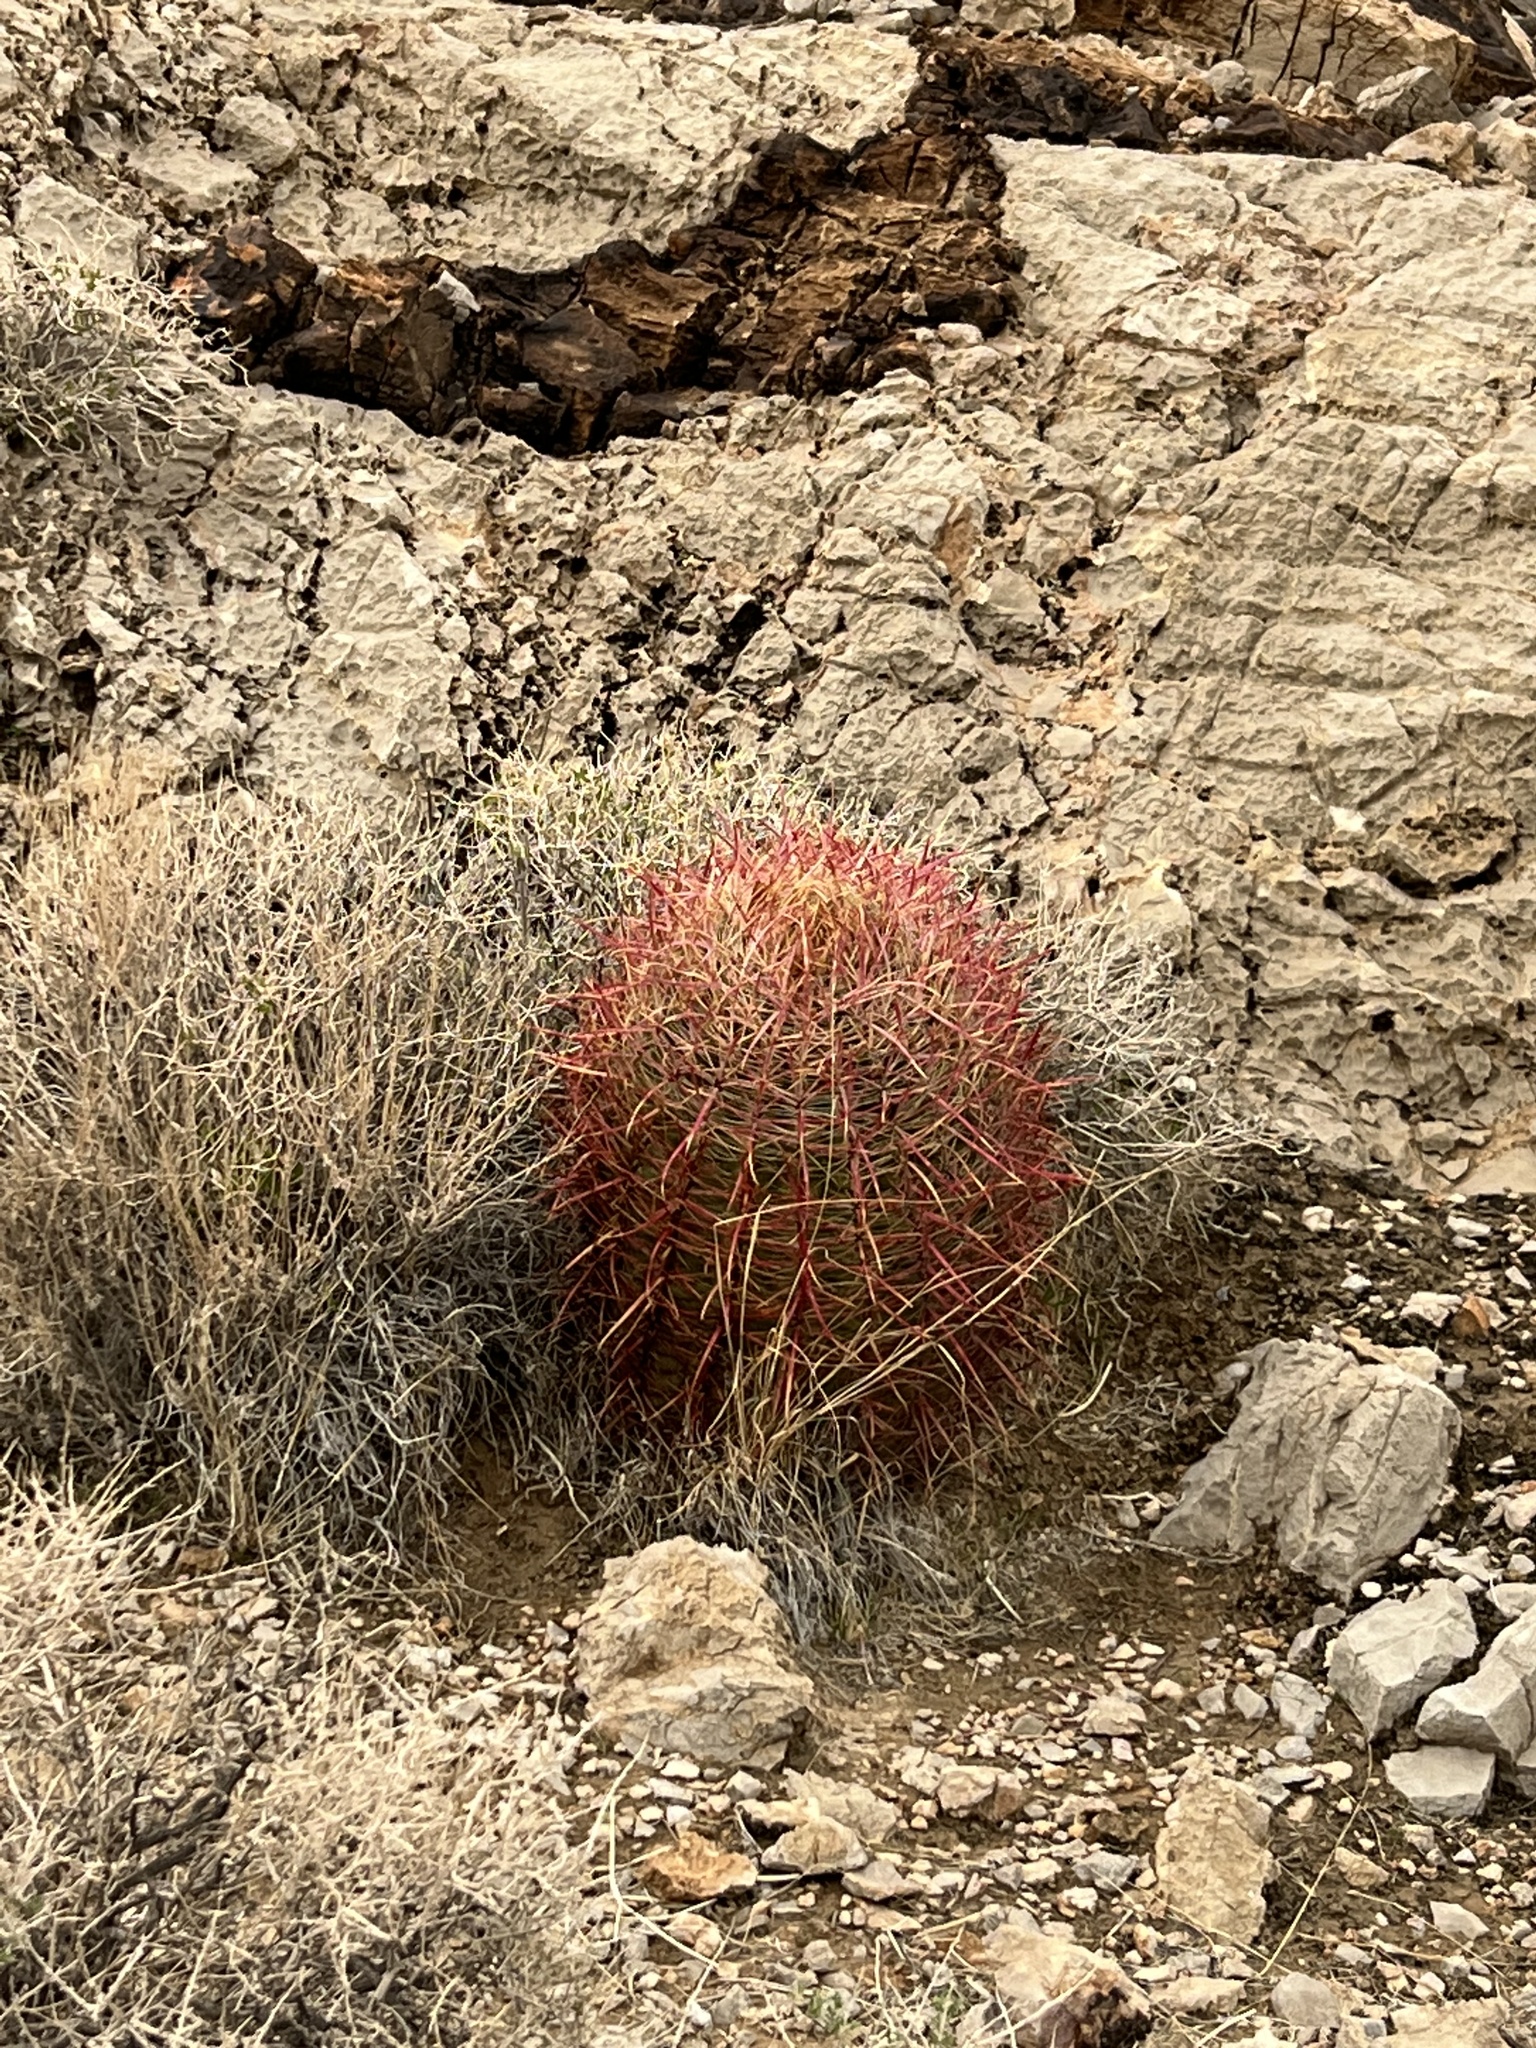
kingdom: Plantae
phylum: Tracheophyta
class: Magnoliopsida
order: Caryophyllales
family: Cactaceae
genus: Ferocactus
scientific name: Ferocactus cylindraceus
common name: California barrel cactus
